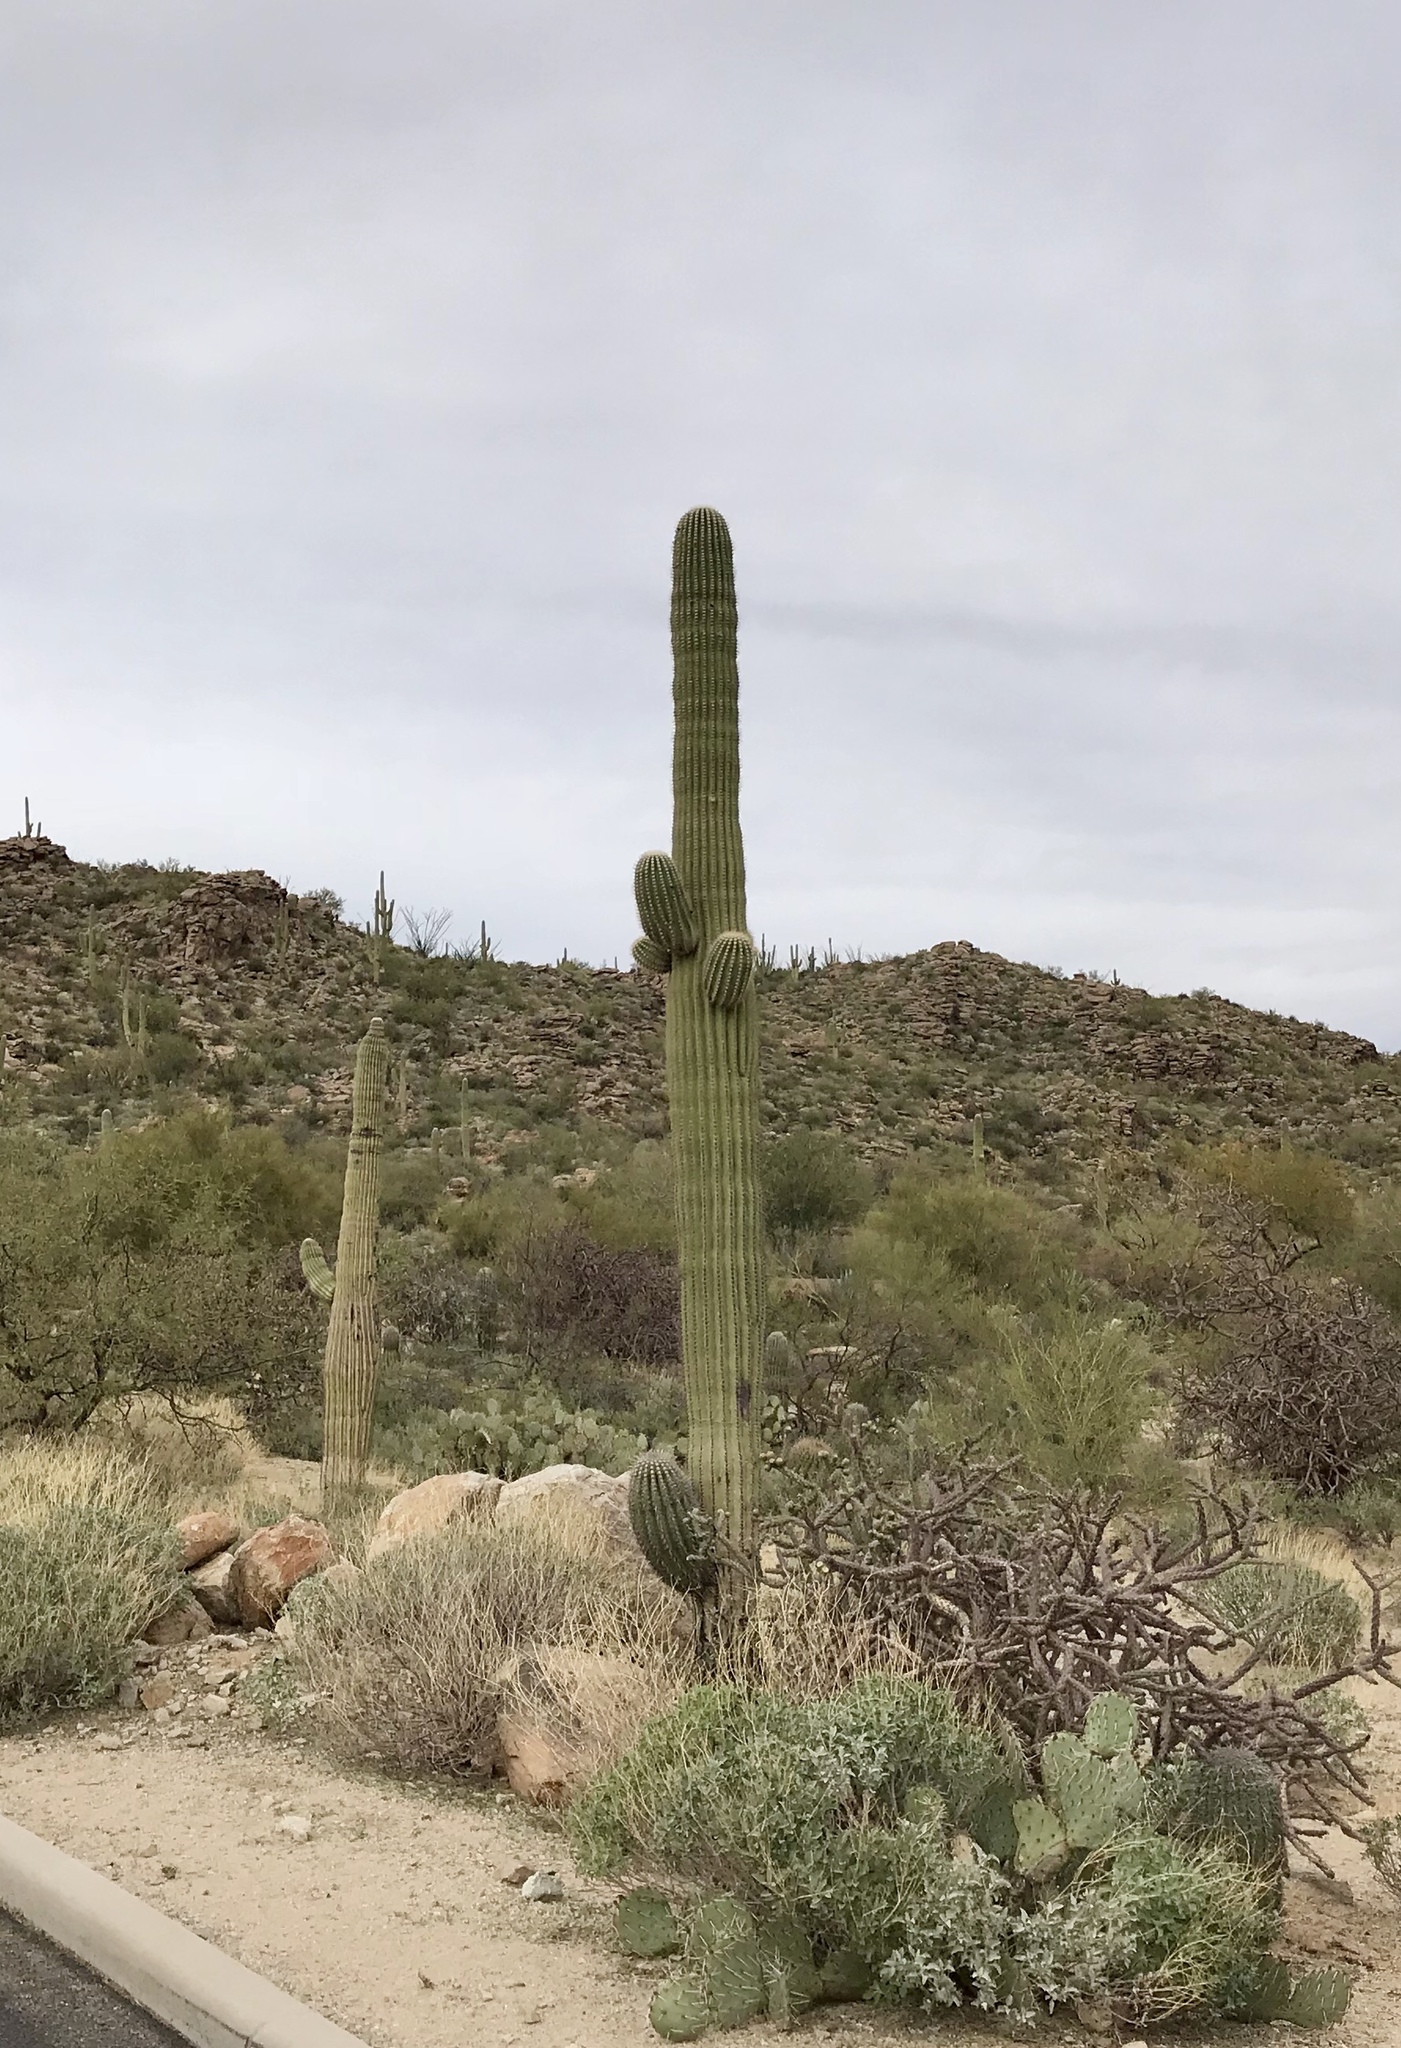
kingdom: Plantae
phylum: Tracheophyta
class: Magnoliopsida
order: Caryophyllales
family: Cactaceae
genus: Carnegiea
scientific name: Carnegiea gigantea
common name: Saguaro
